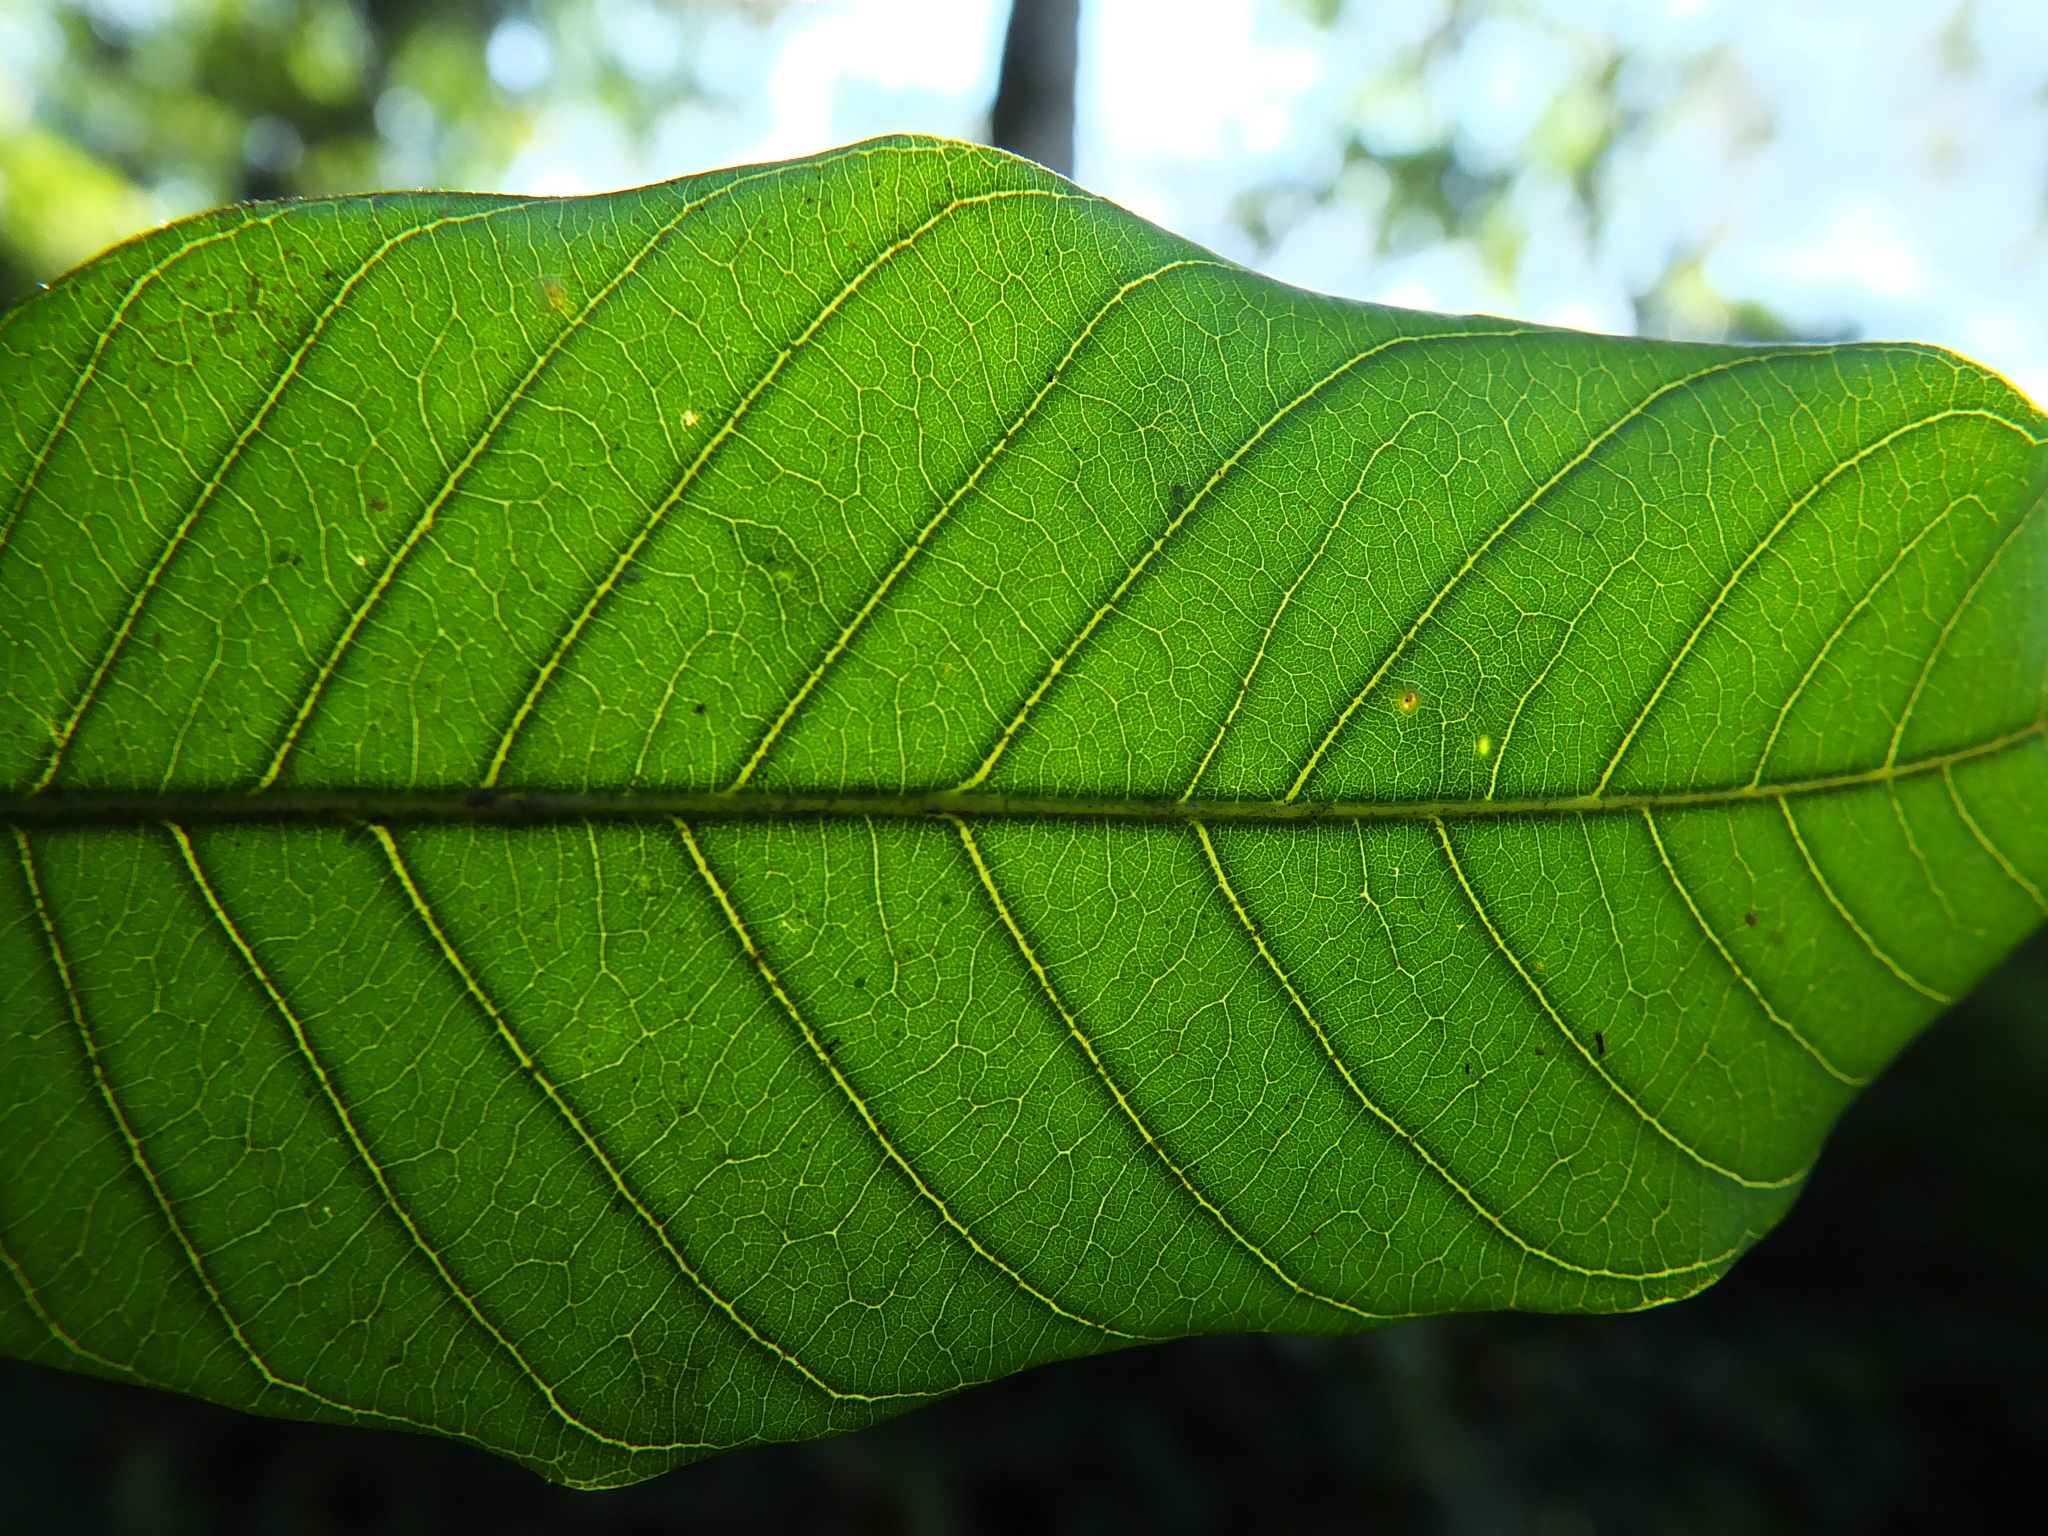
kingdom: Plantae
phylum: Tracheophyta
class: Magnoliopsida
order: Sapindales
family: Sapindaceae
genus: Dimocarpus
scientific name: Dimocarpus longan
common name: Longan
